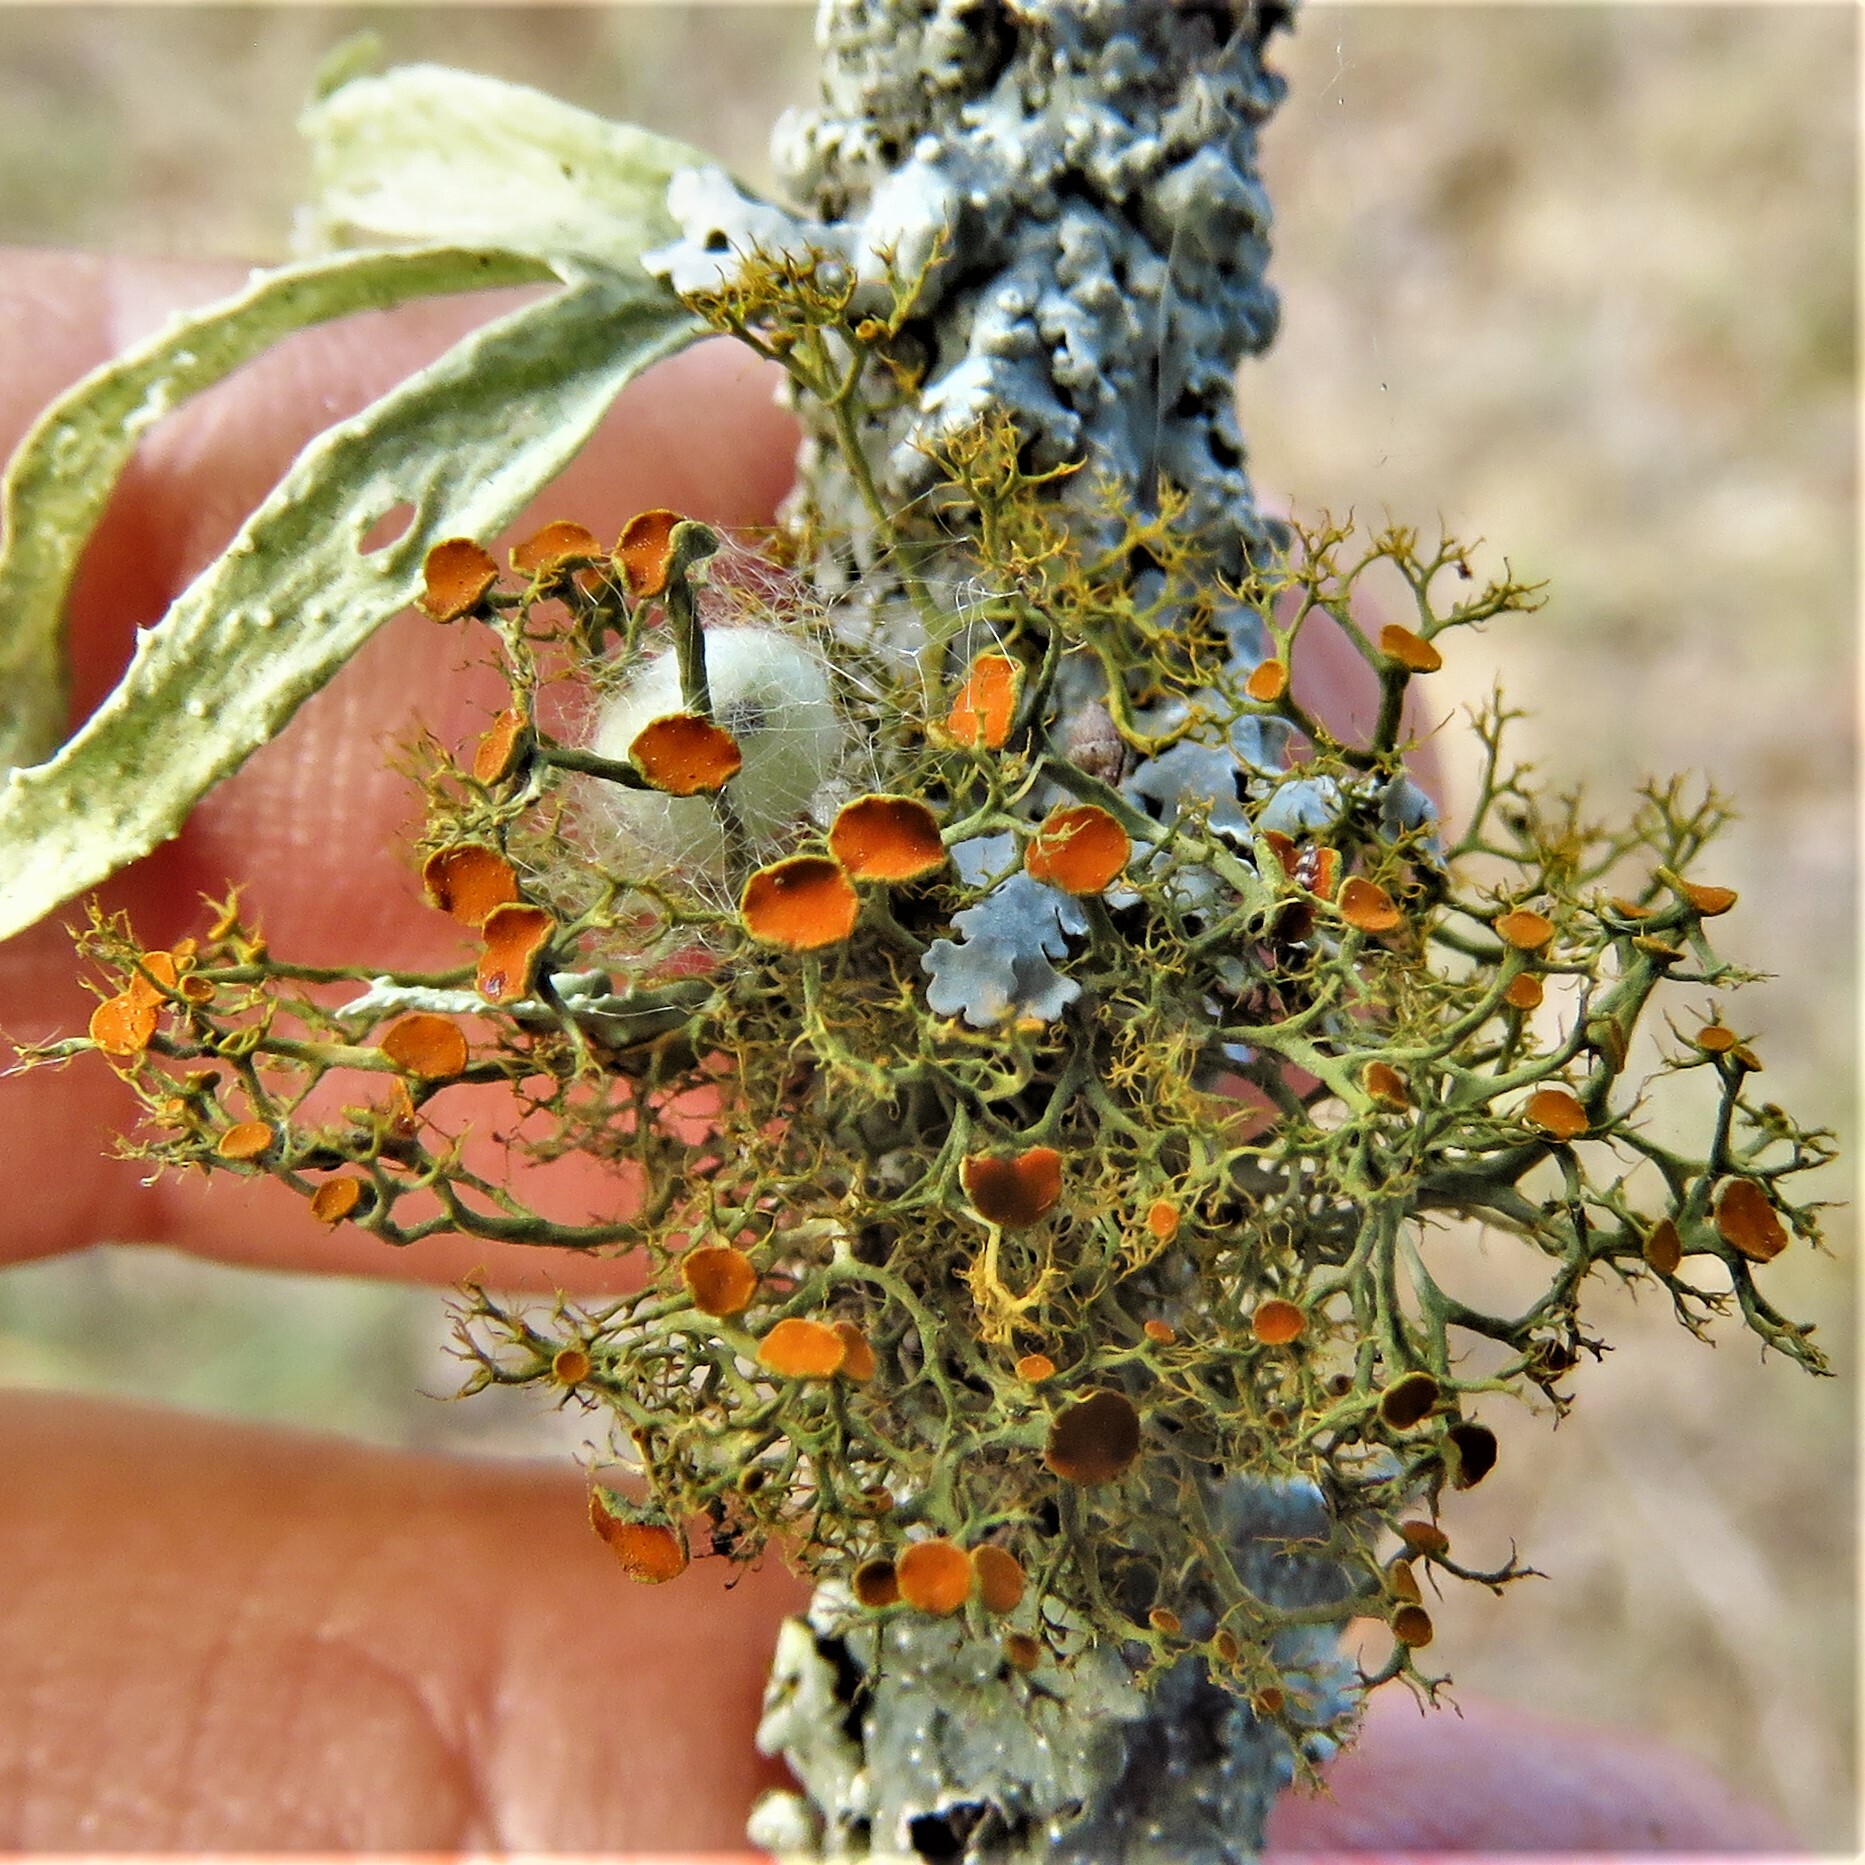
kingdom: Fungi
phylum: Ascomycota
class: Lecanoromycetes
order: Teloschistales
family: Teloschistaceae
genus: Teloschistes
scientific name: Teloschistes exilis
